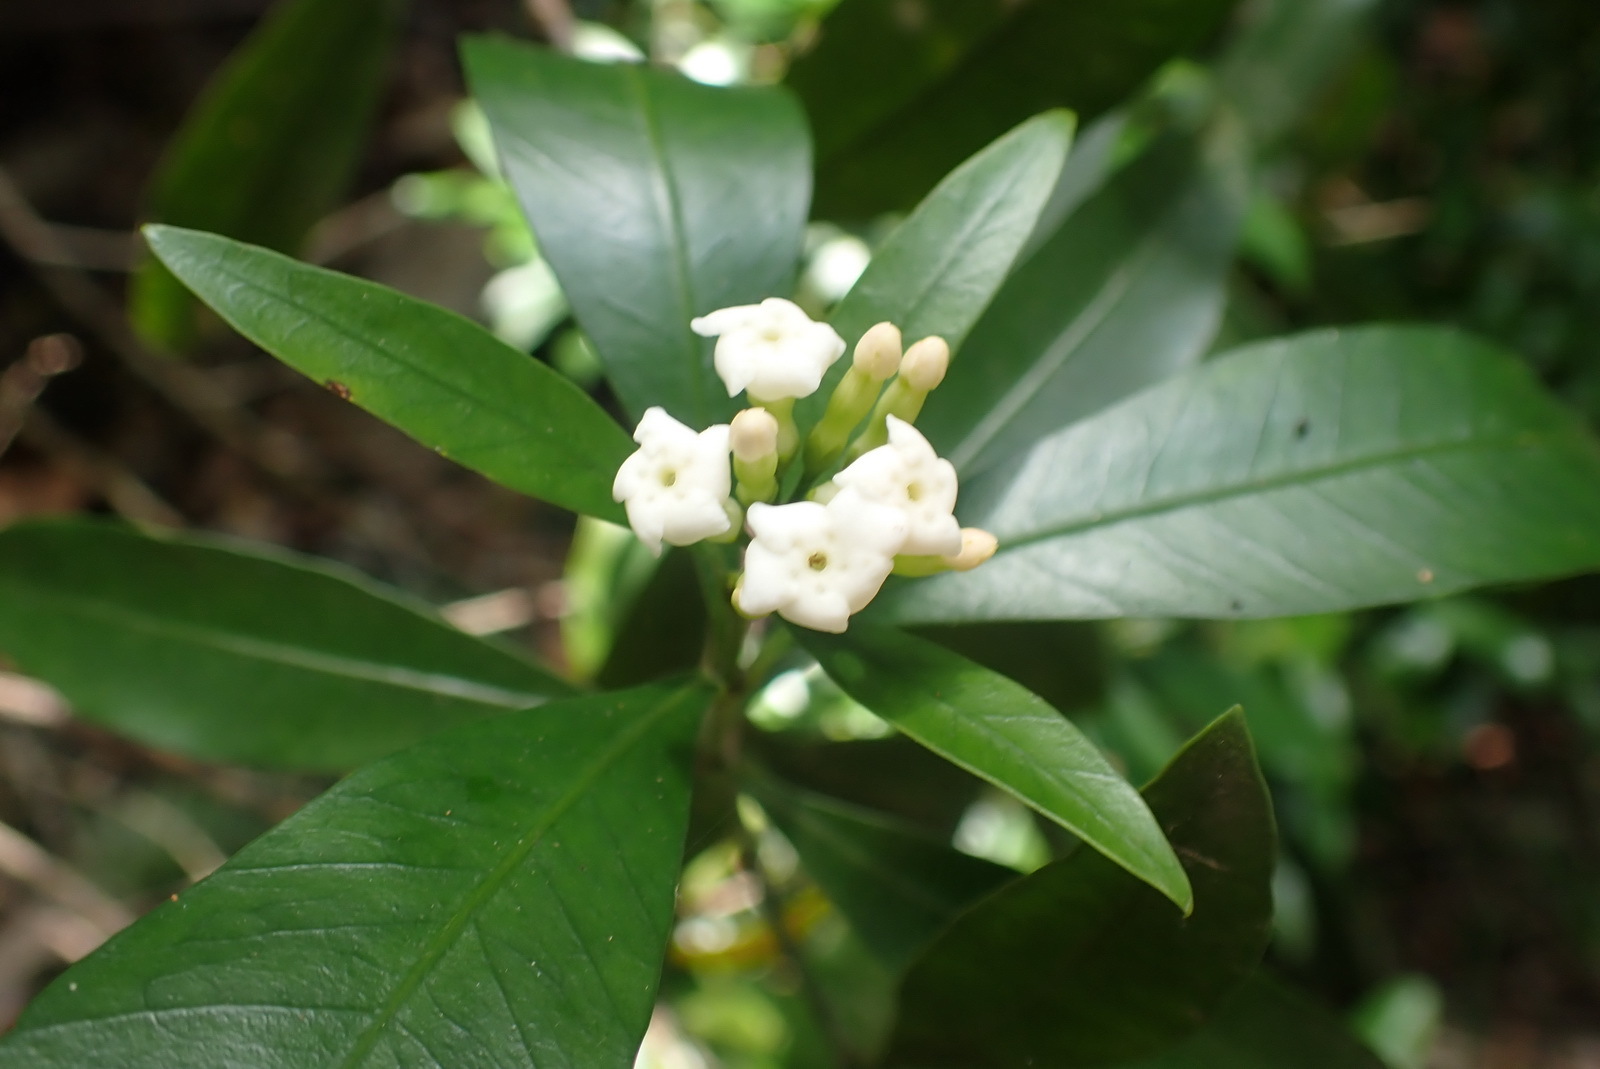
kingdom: Plantae
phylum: Tracheophyta
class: Magnoliopsida
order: Gentianales
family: Apocynaceae
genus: Gonioma
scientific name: Gonioma kamassi
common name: Kamassi
